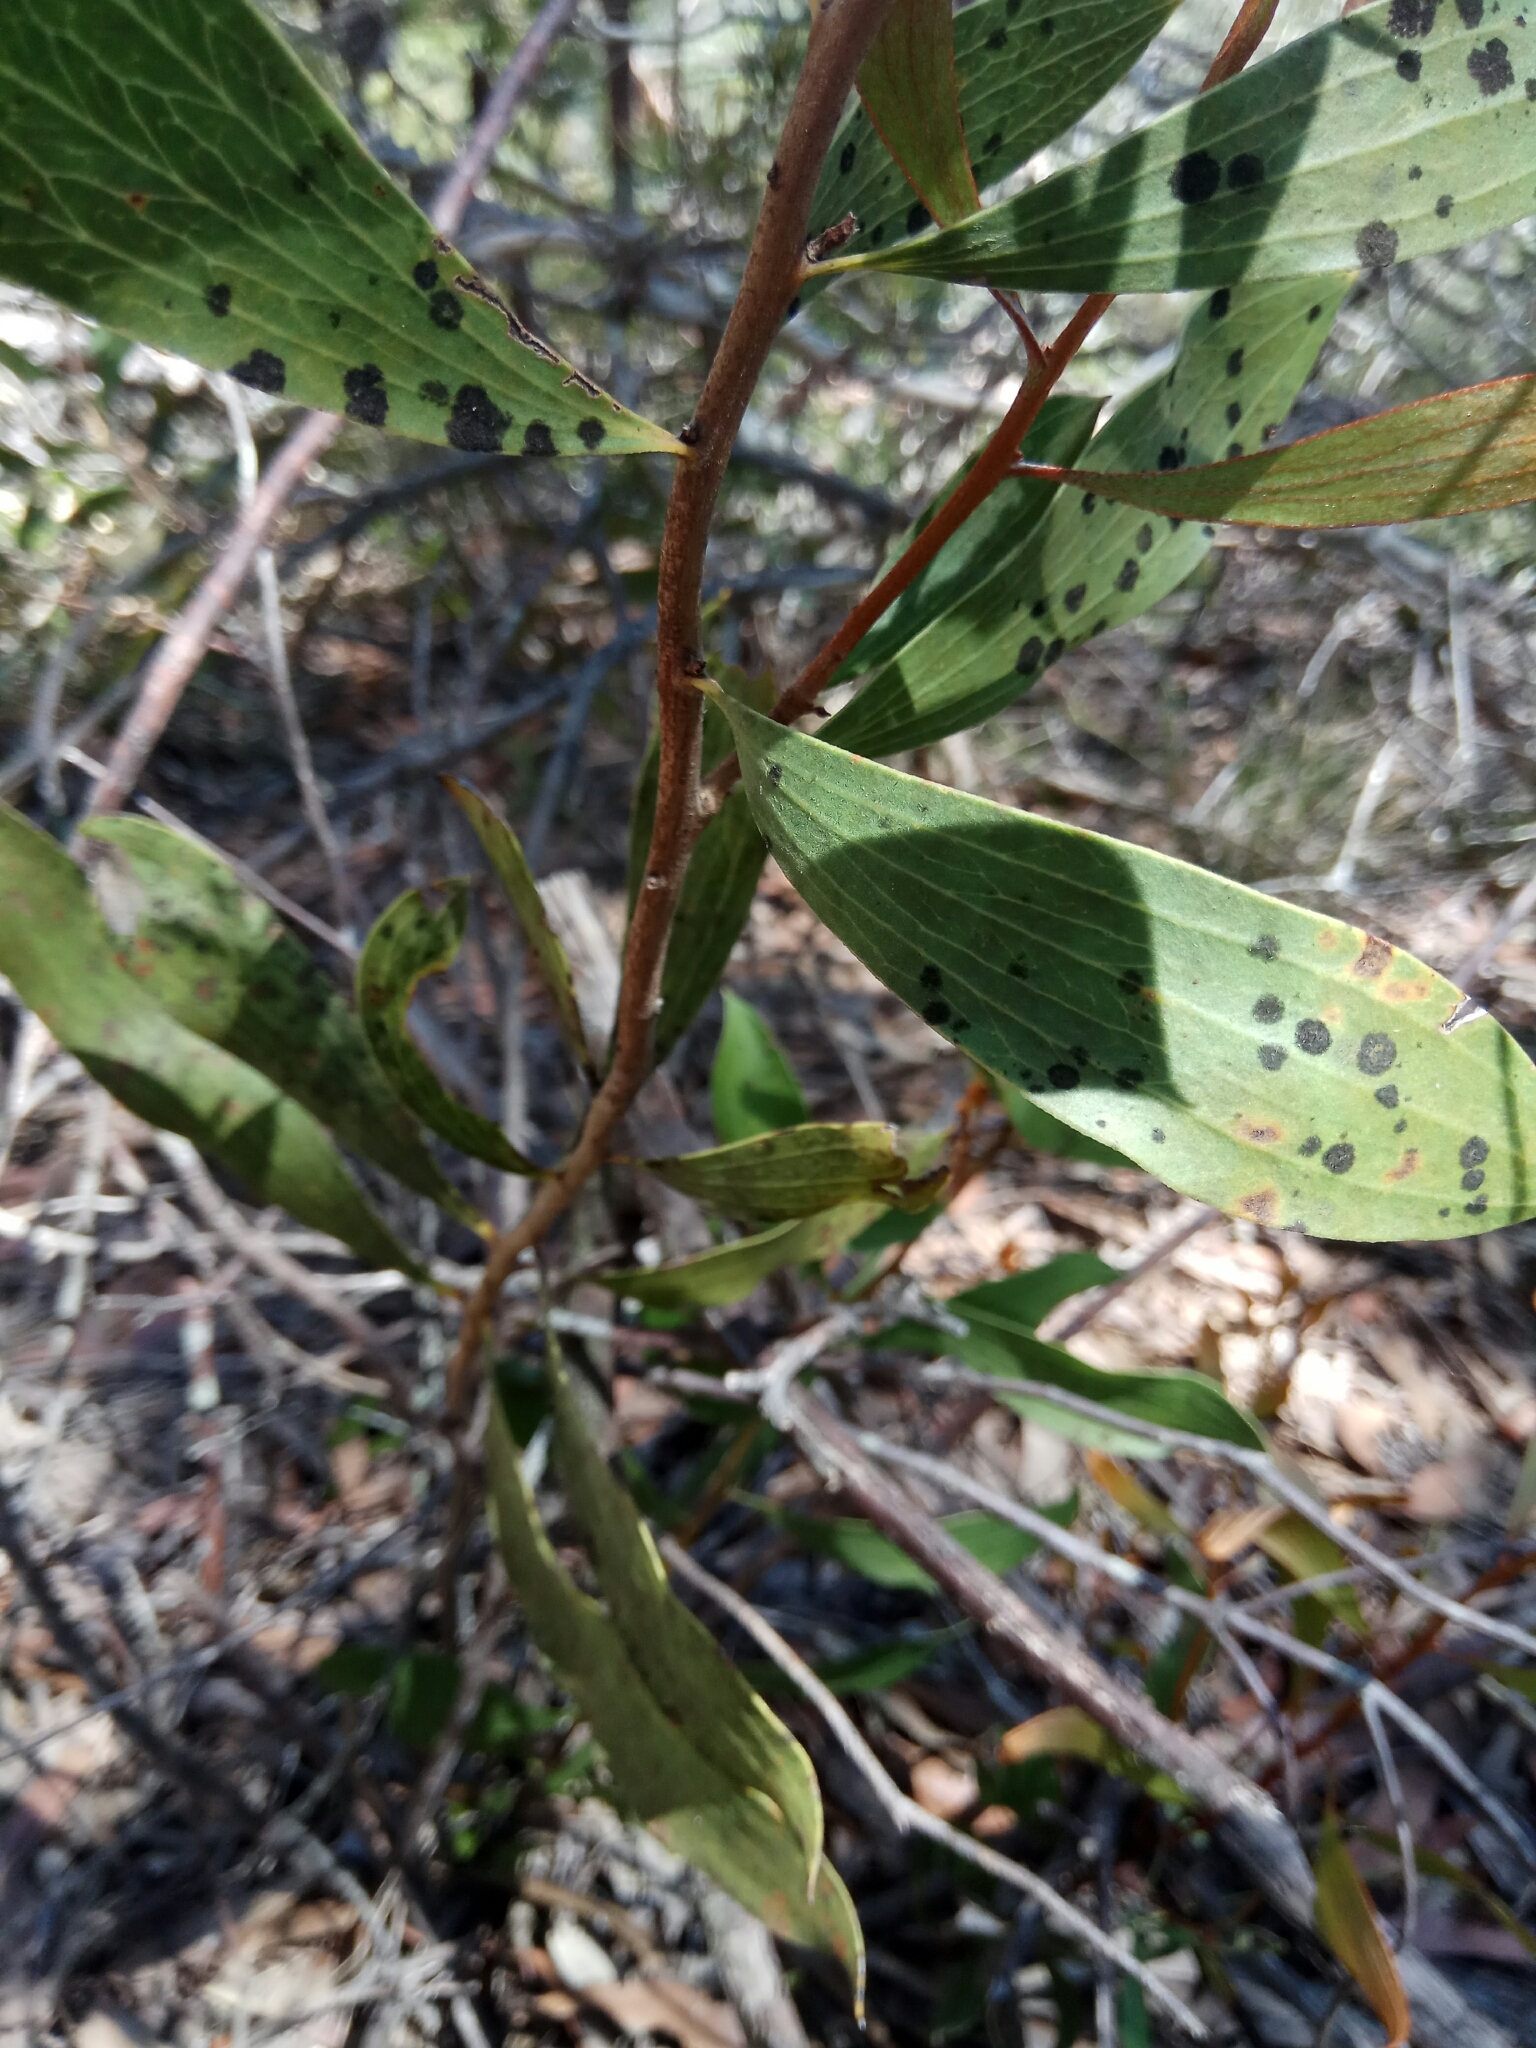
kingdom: Plantae
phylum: Tracheophyta
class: Magnoliopsida
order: Proteales
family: Proteaceae
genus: Hakea
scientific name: Hakea dactyloides
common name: Finger hakea
